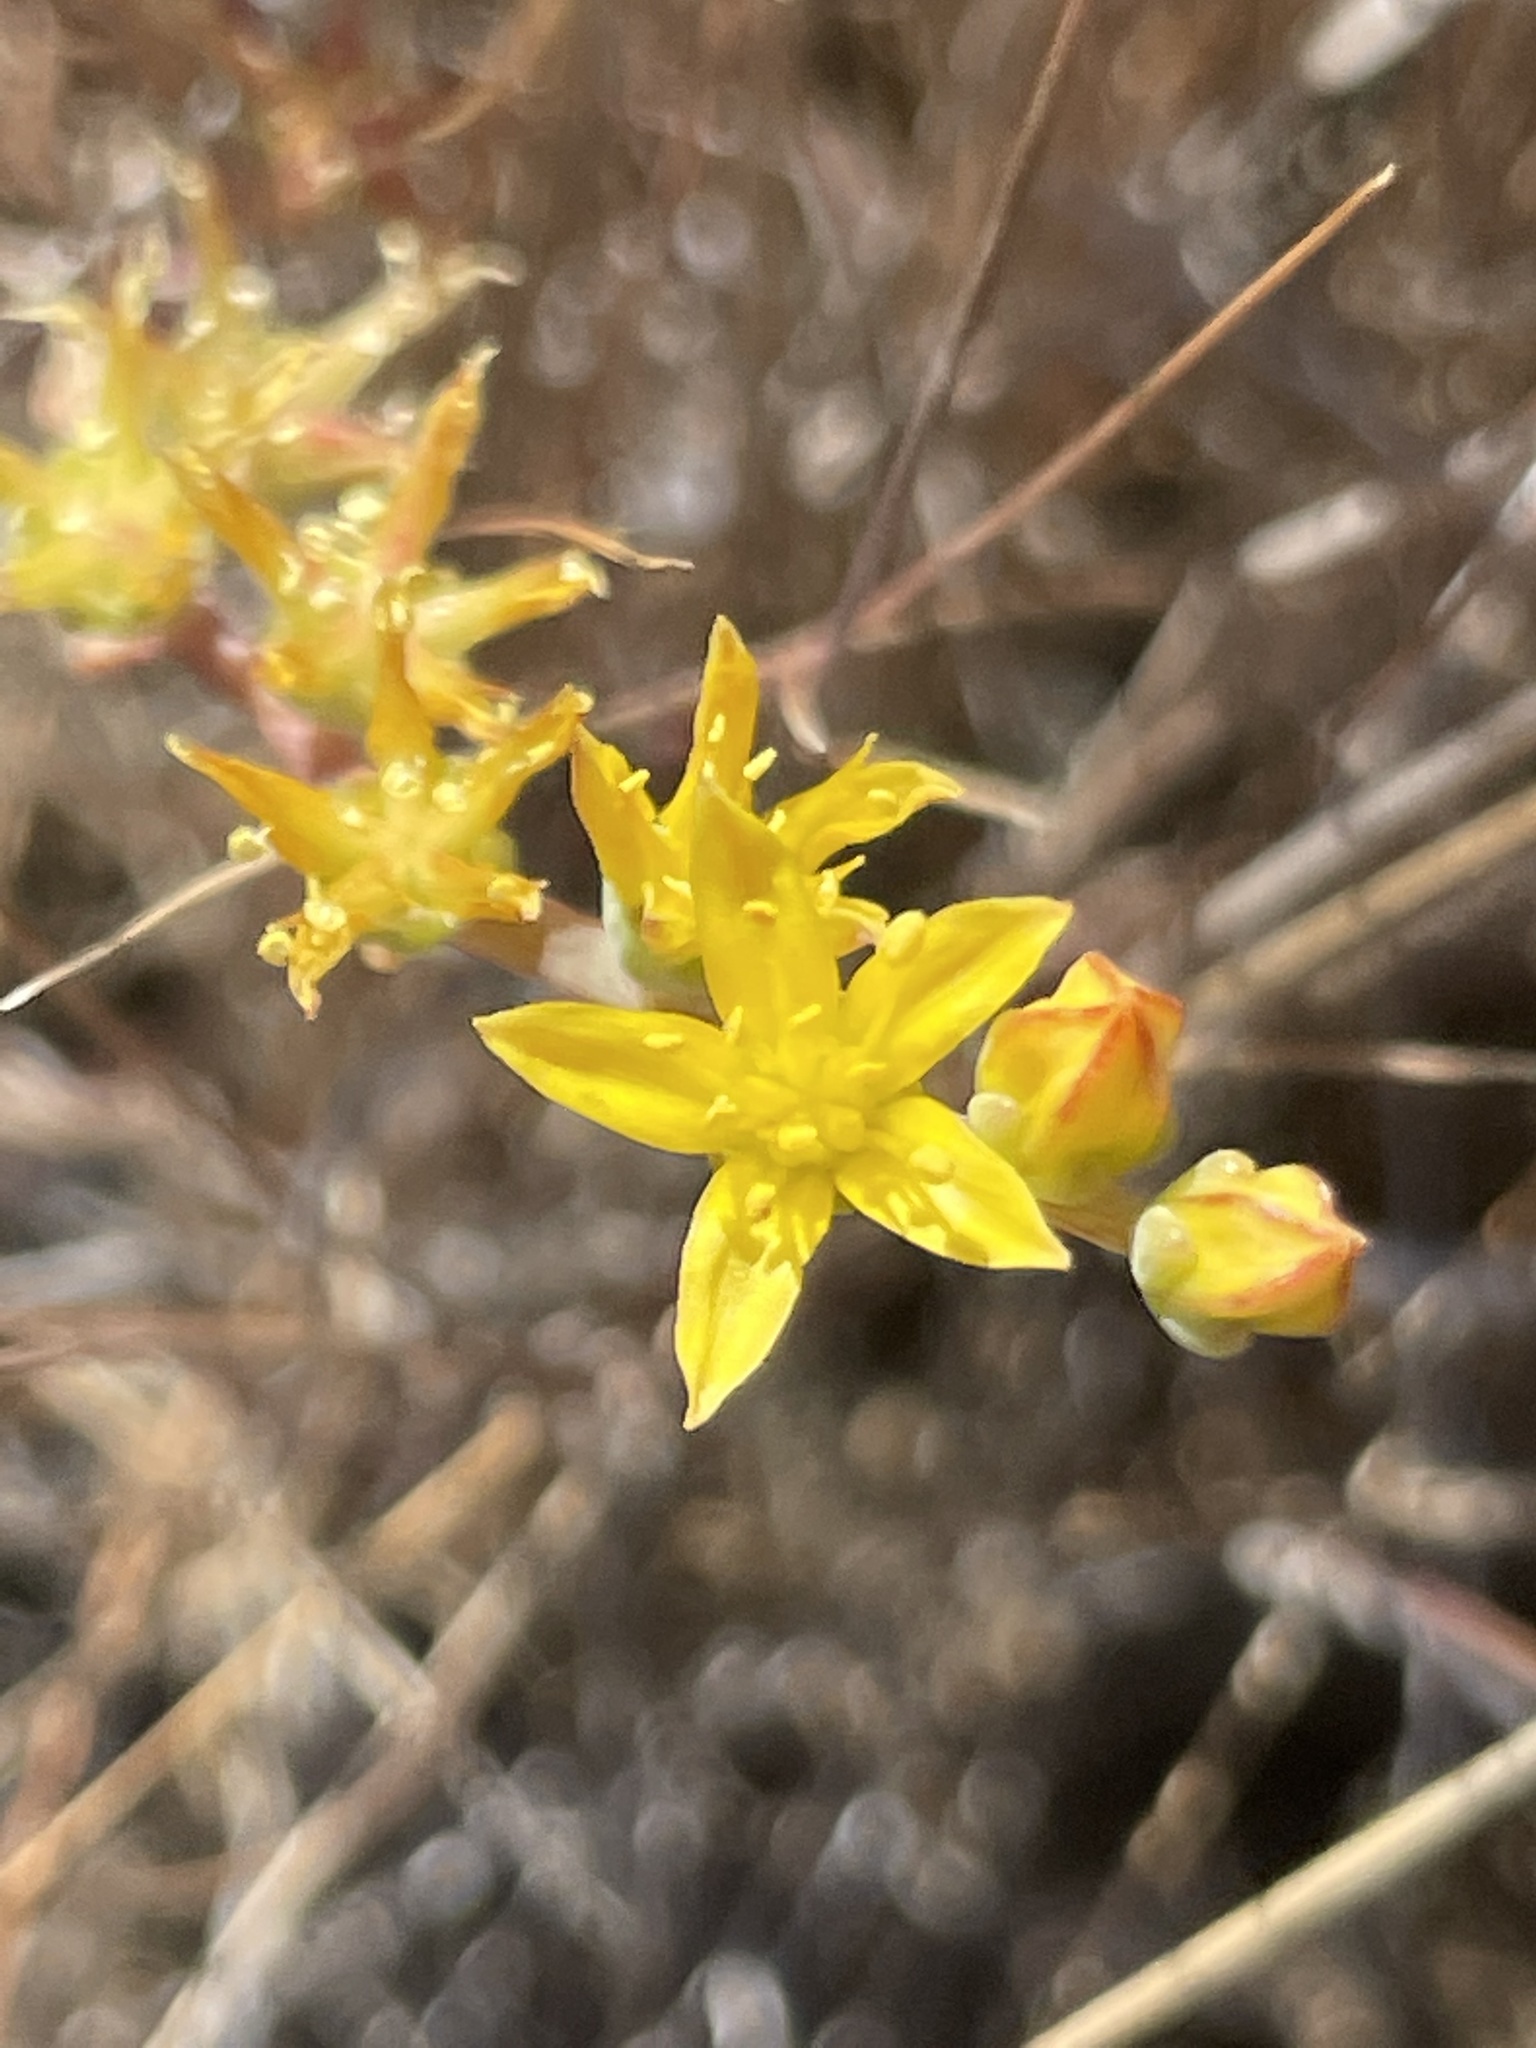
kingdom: Plantae
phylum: Tracheophyta
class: Magnoliopsida
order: Saxifragales
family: Crassulaceae
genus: Dudleya
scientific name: Dudleya variegata
